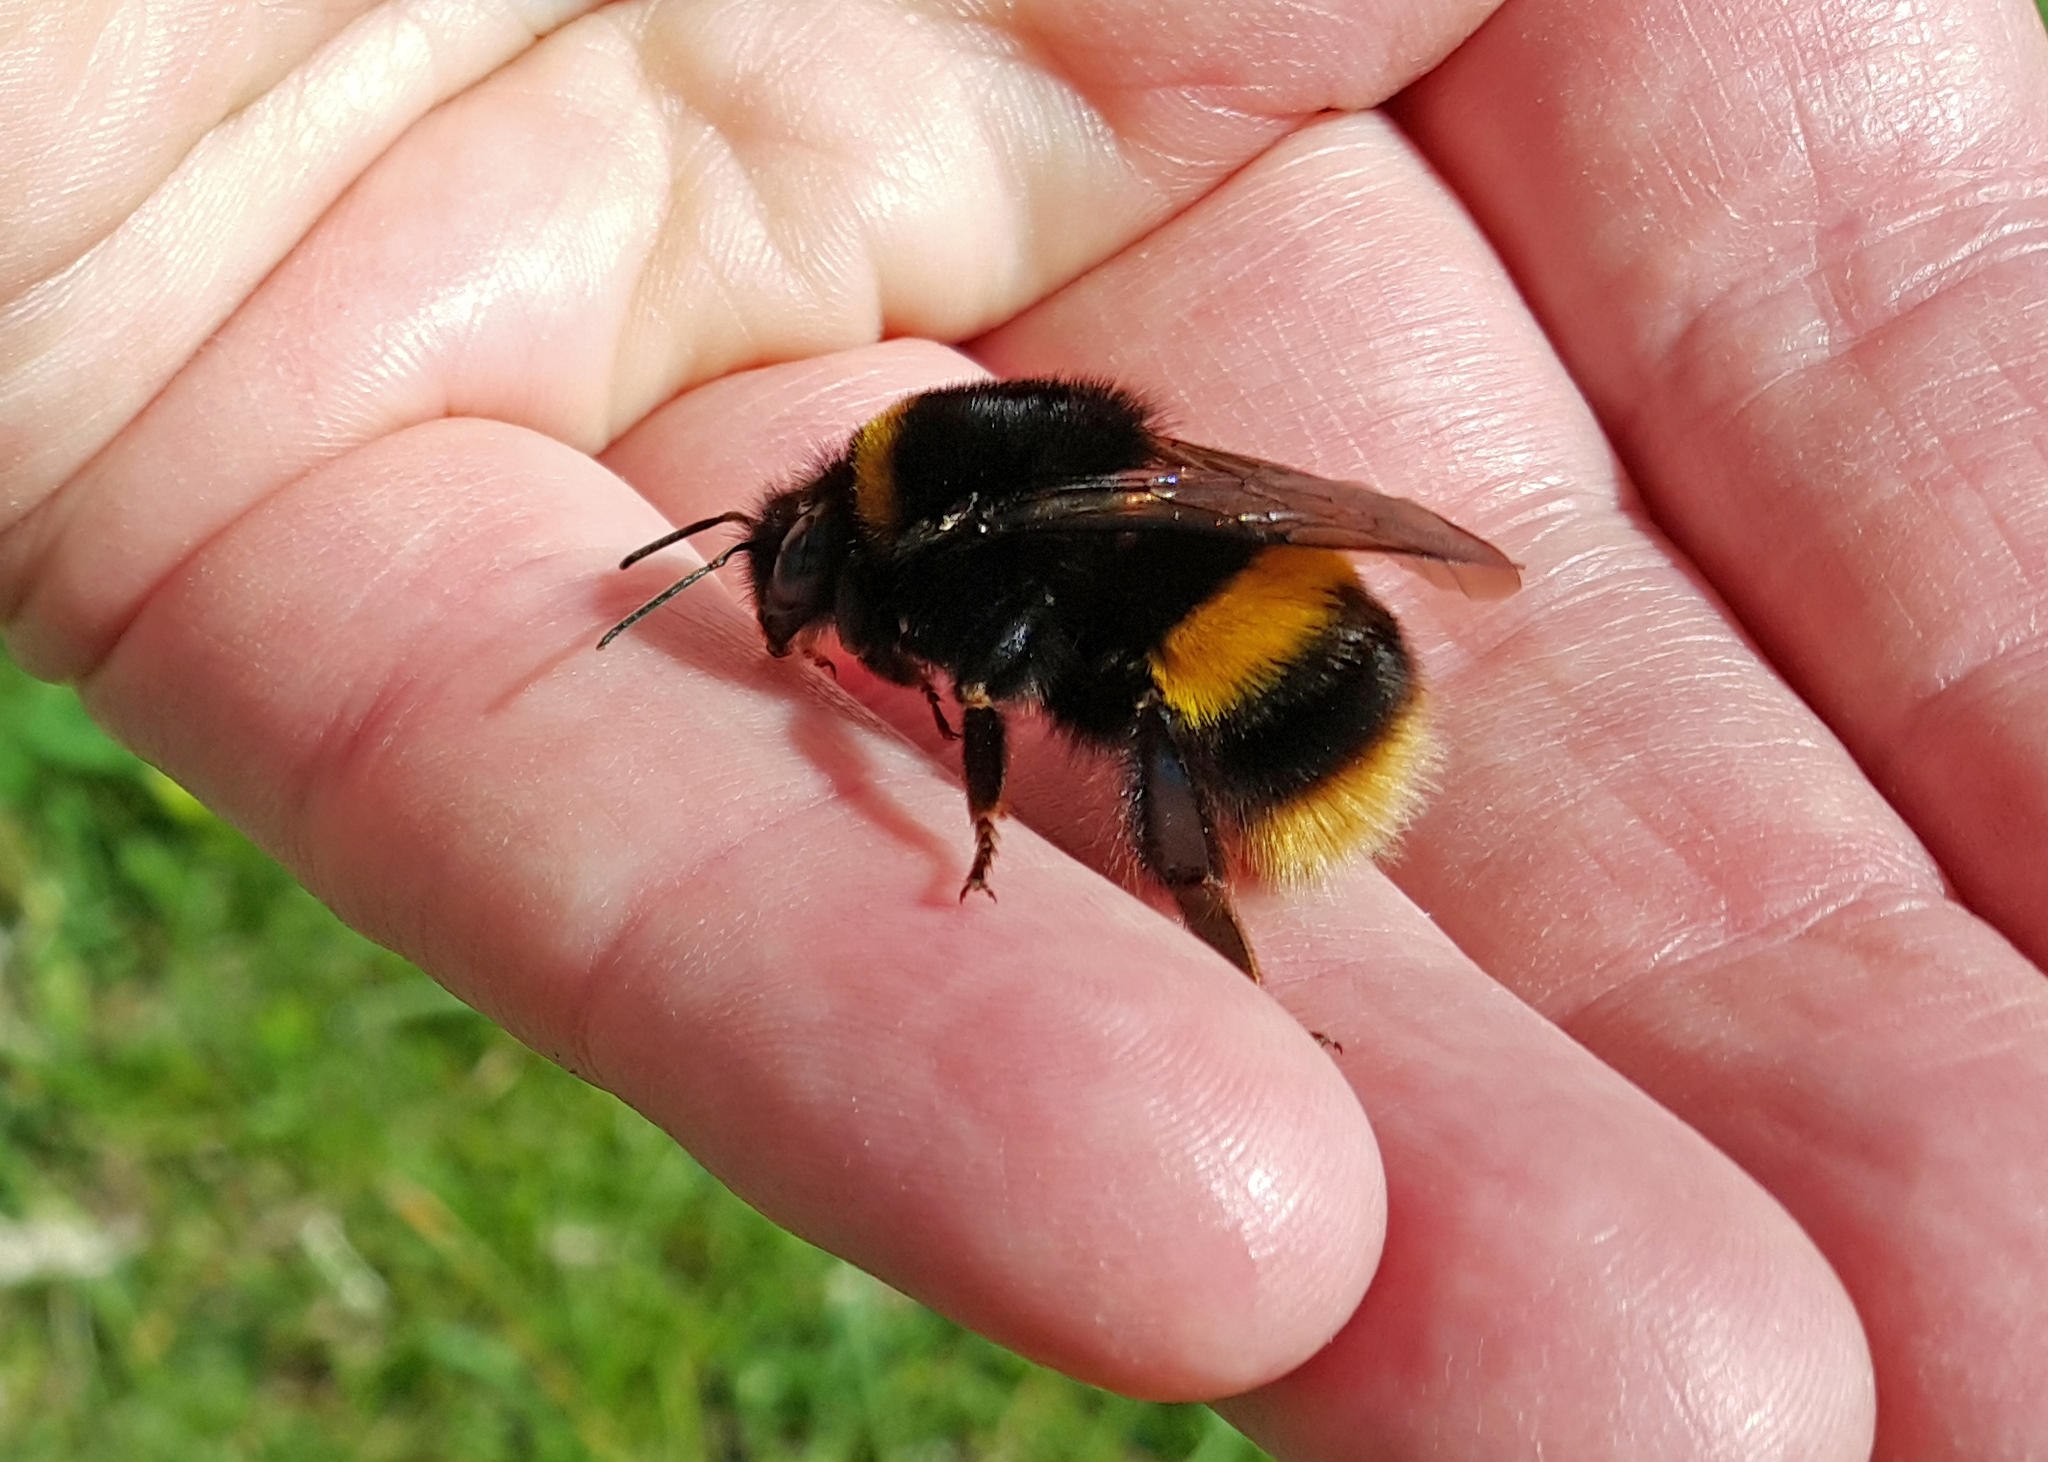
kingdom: Animalia
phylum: Arthropoda
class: Insecta
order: Hymenoptera
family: Apidae
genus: Bombus
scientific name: Bombus terrestris
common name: Buff-tailed bumblebee
